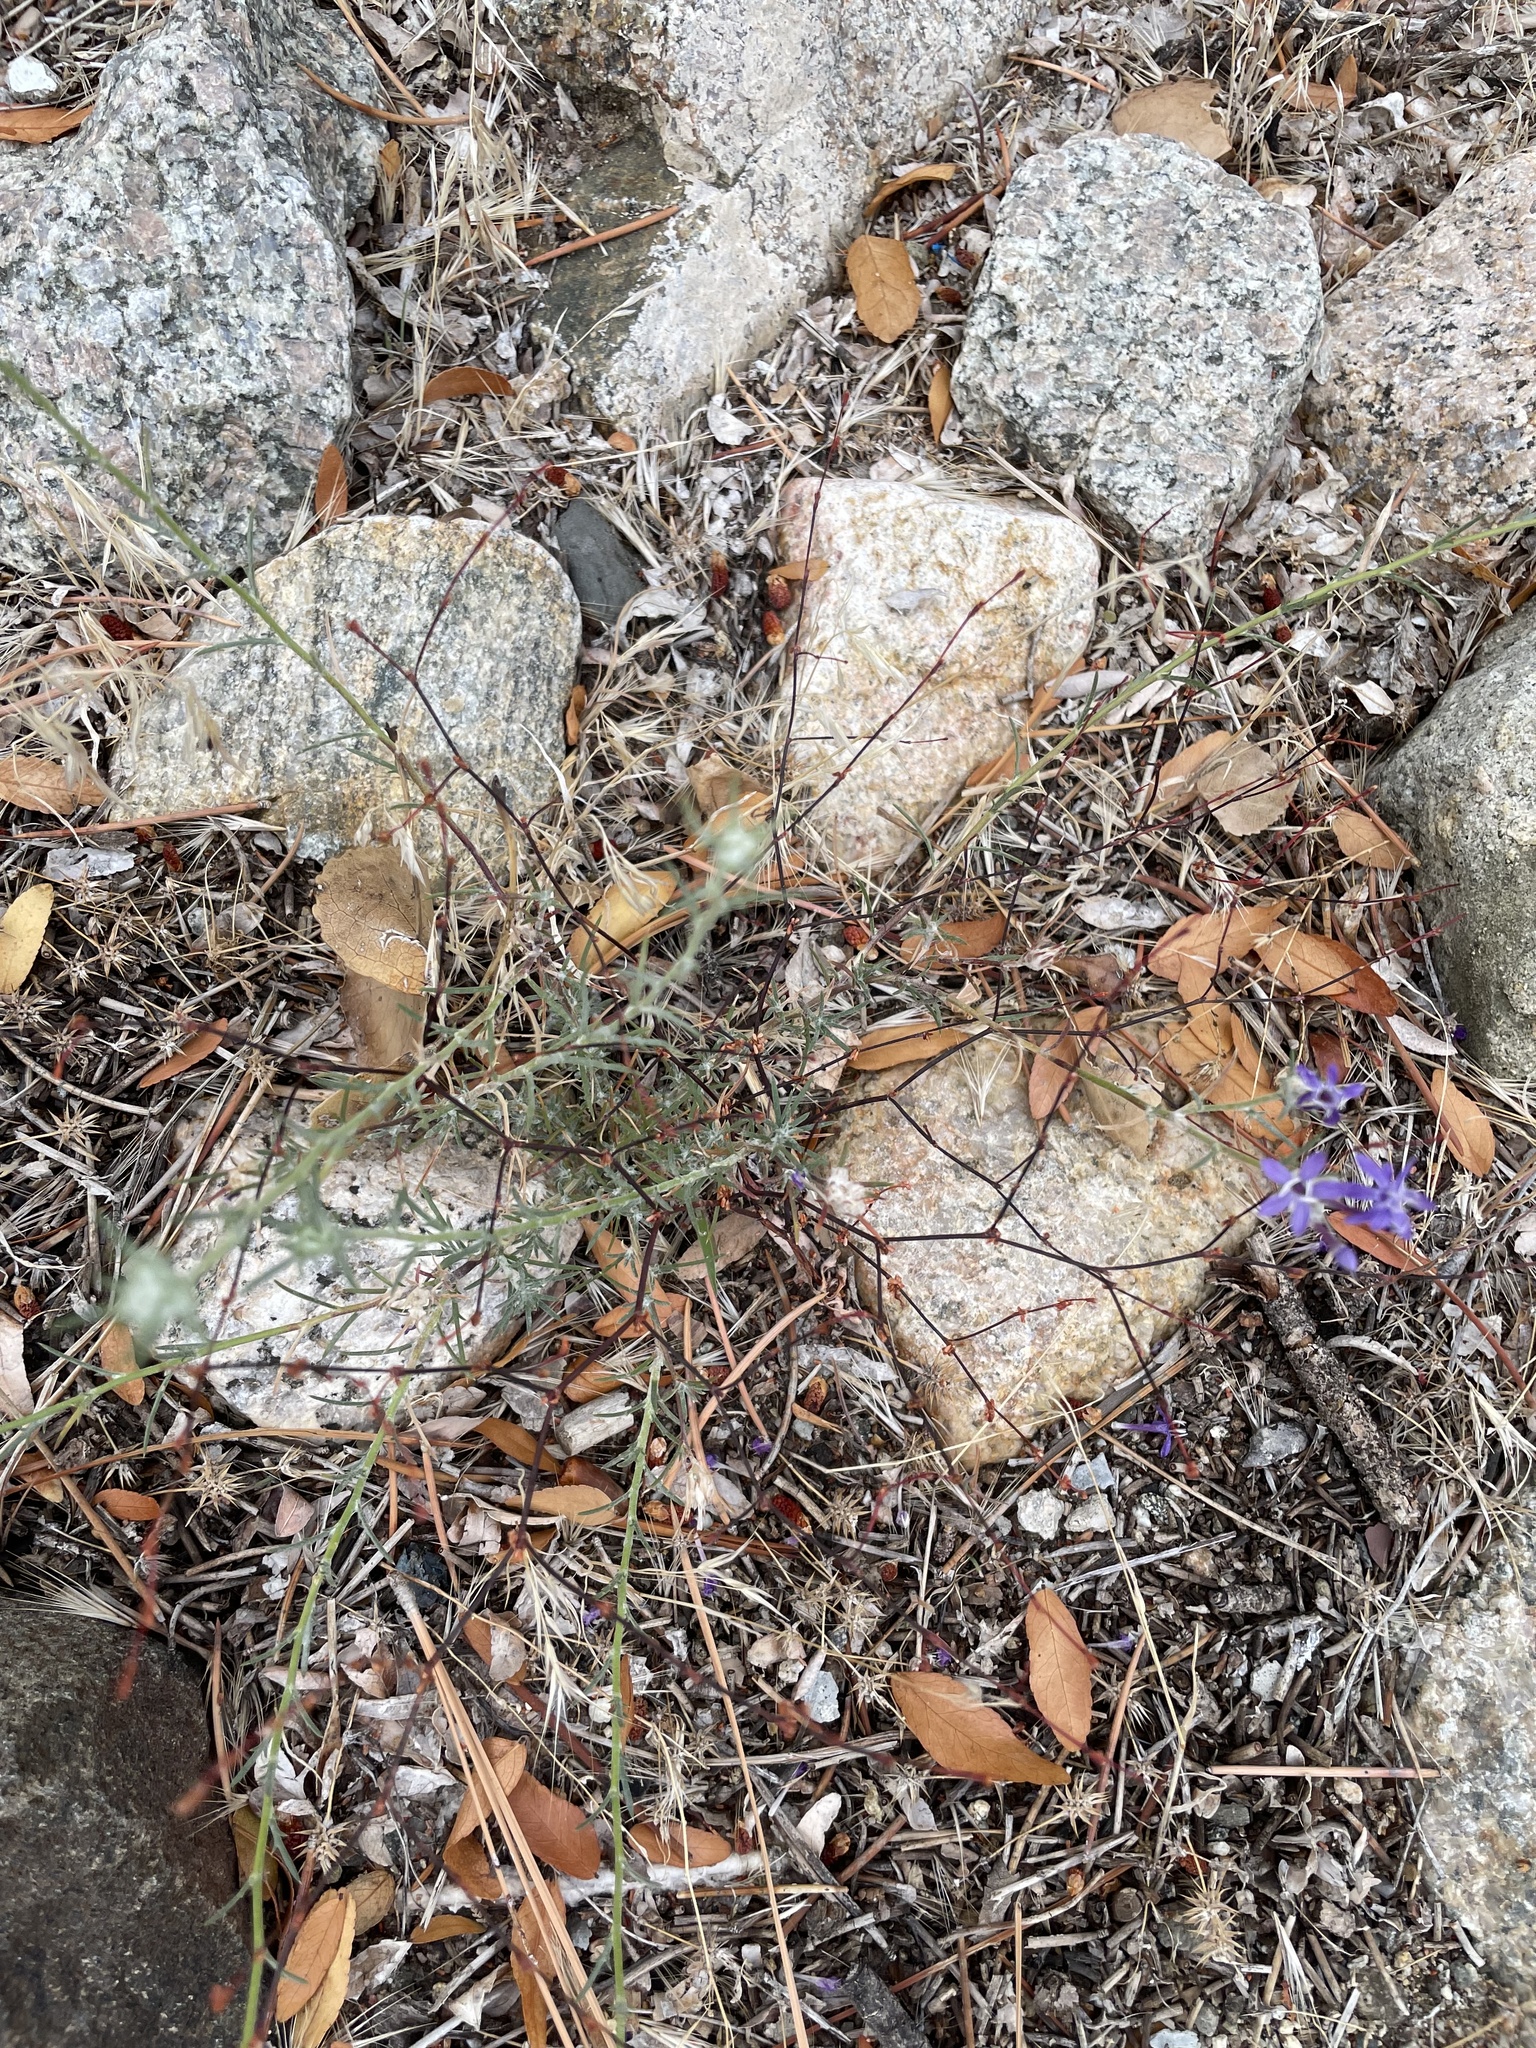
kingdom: Plantae
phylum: Tracheophyta
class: Magnoliopsida
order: Ericales
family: Polemoniaceae
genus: Eriastrum
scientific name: Eriastrum densifolium
